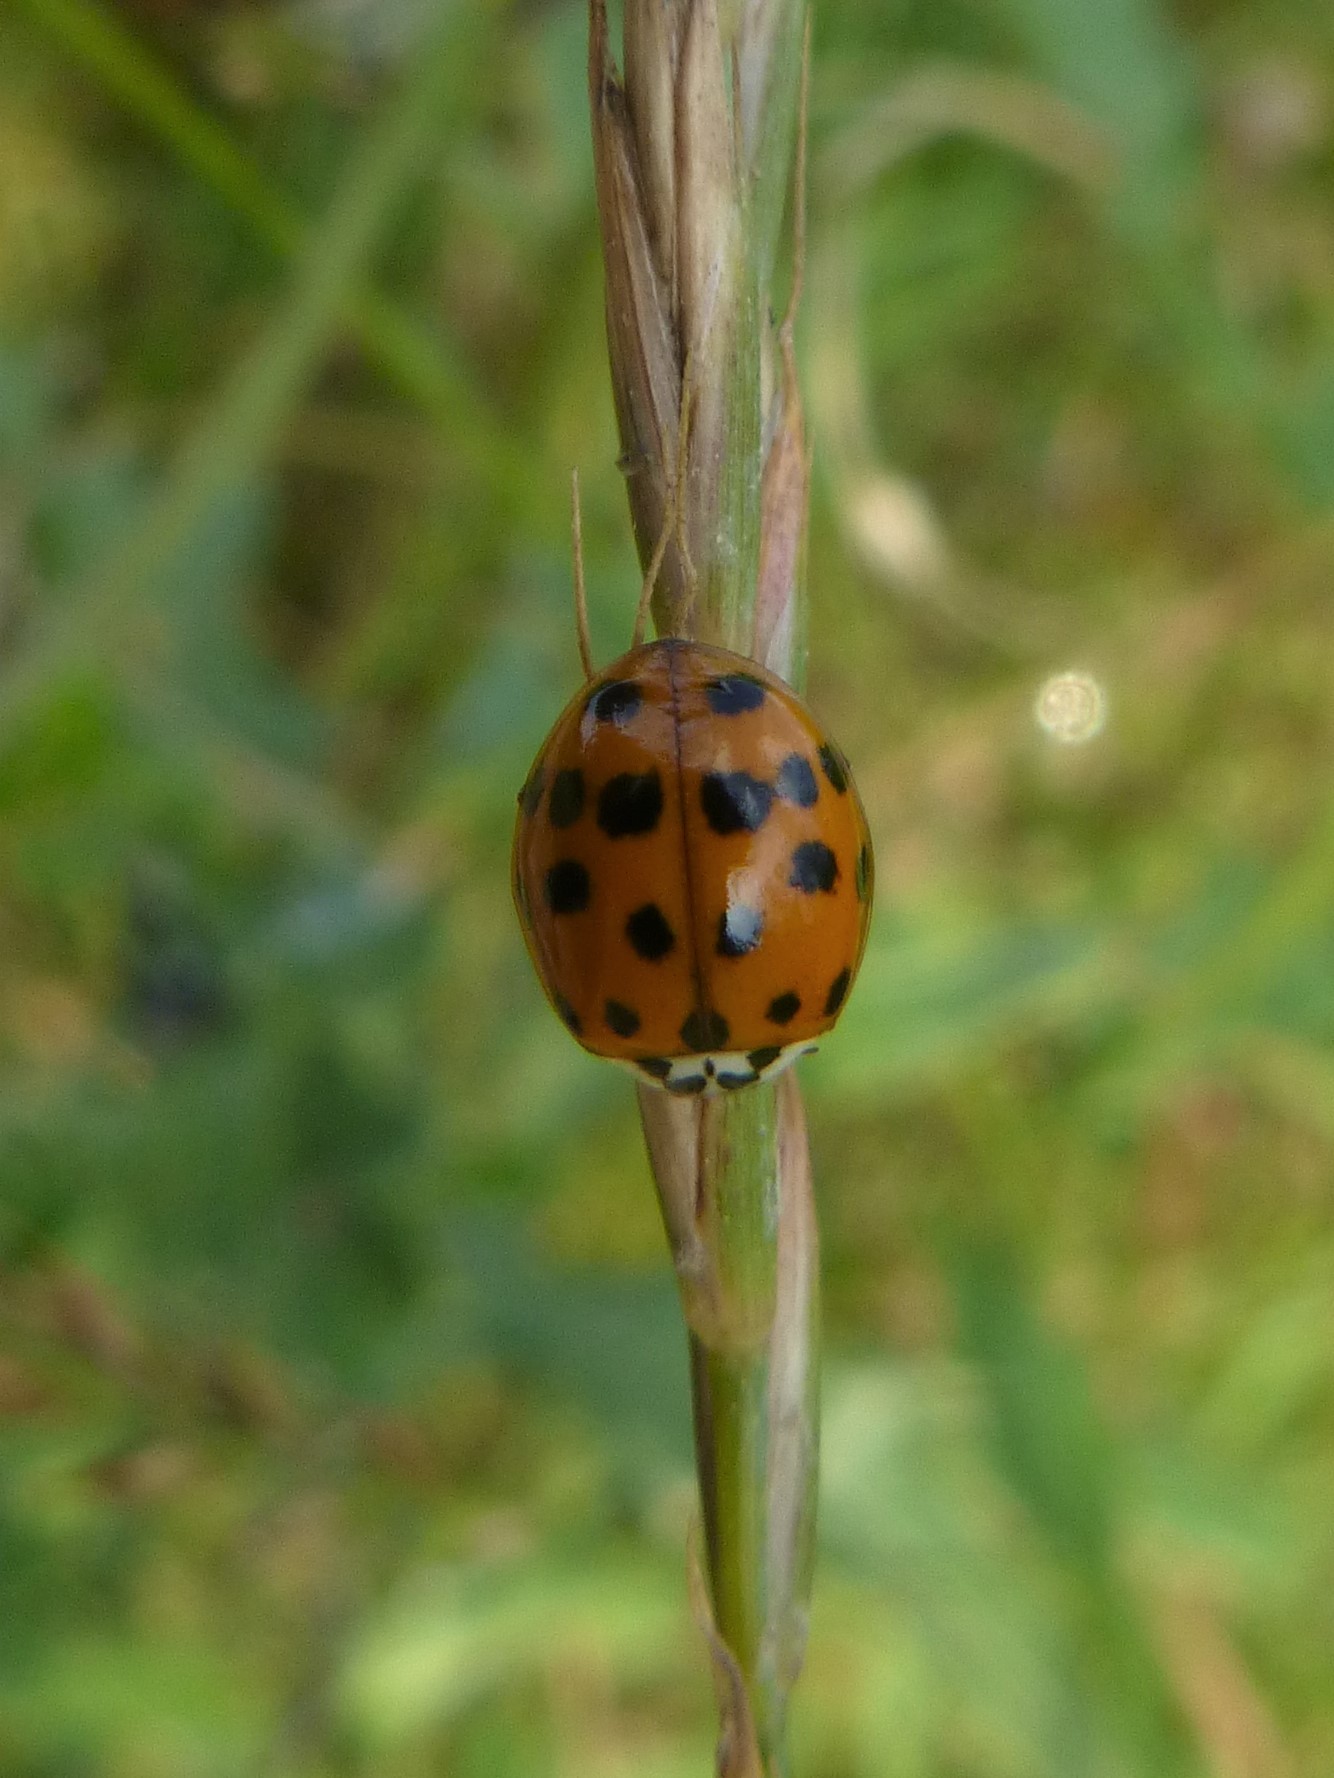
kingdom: Animalia
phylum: Arthropoda
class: Insecta
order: Coleoptera
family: Coccinellidae
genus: Harmonia
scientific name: Harmonia axyridis
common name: Harlequin ladybird
